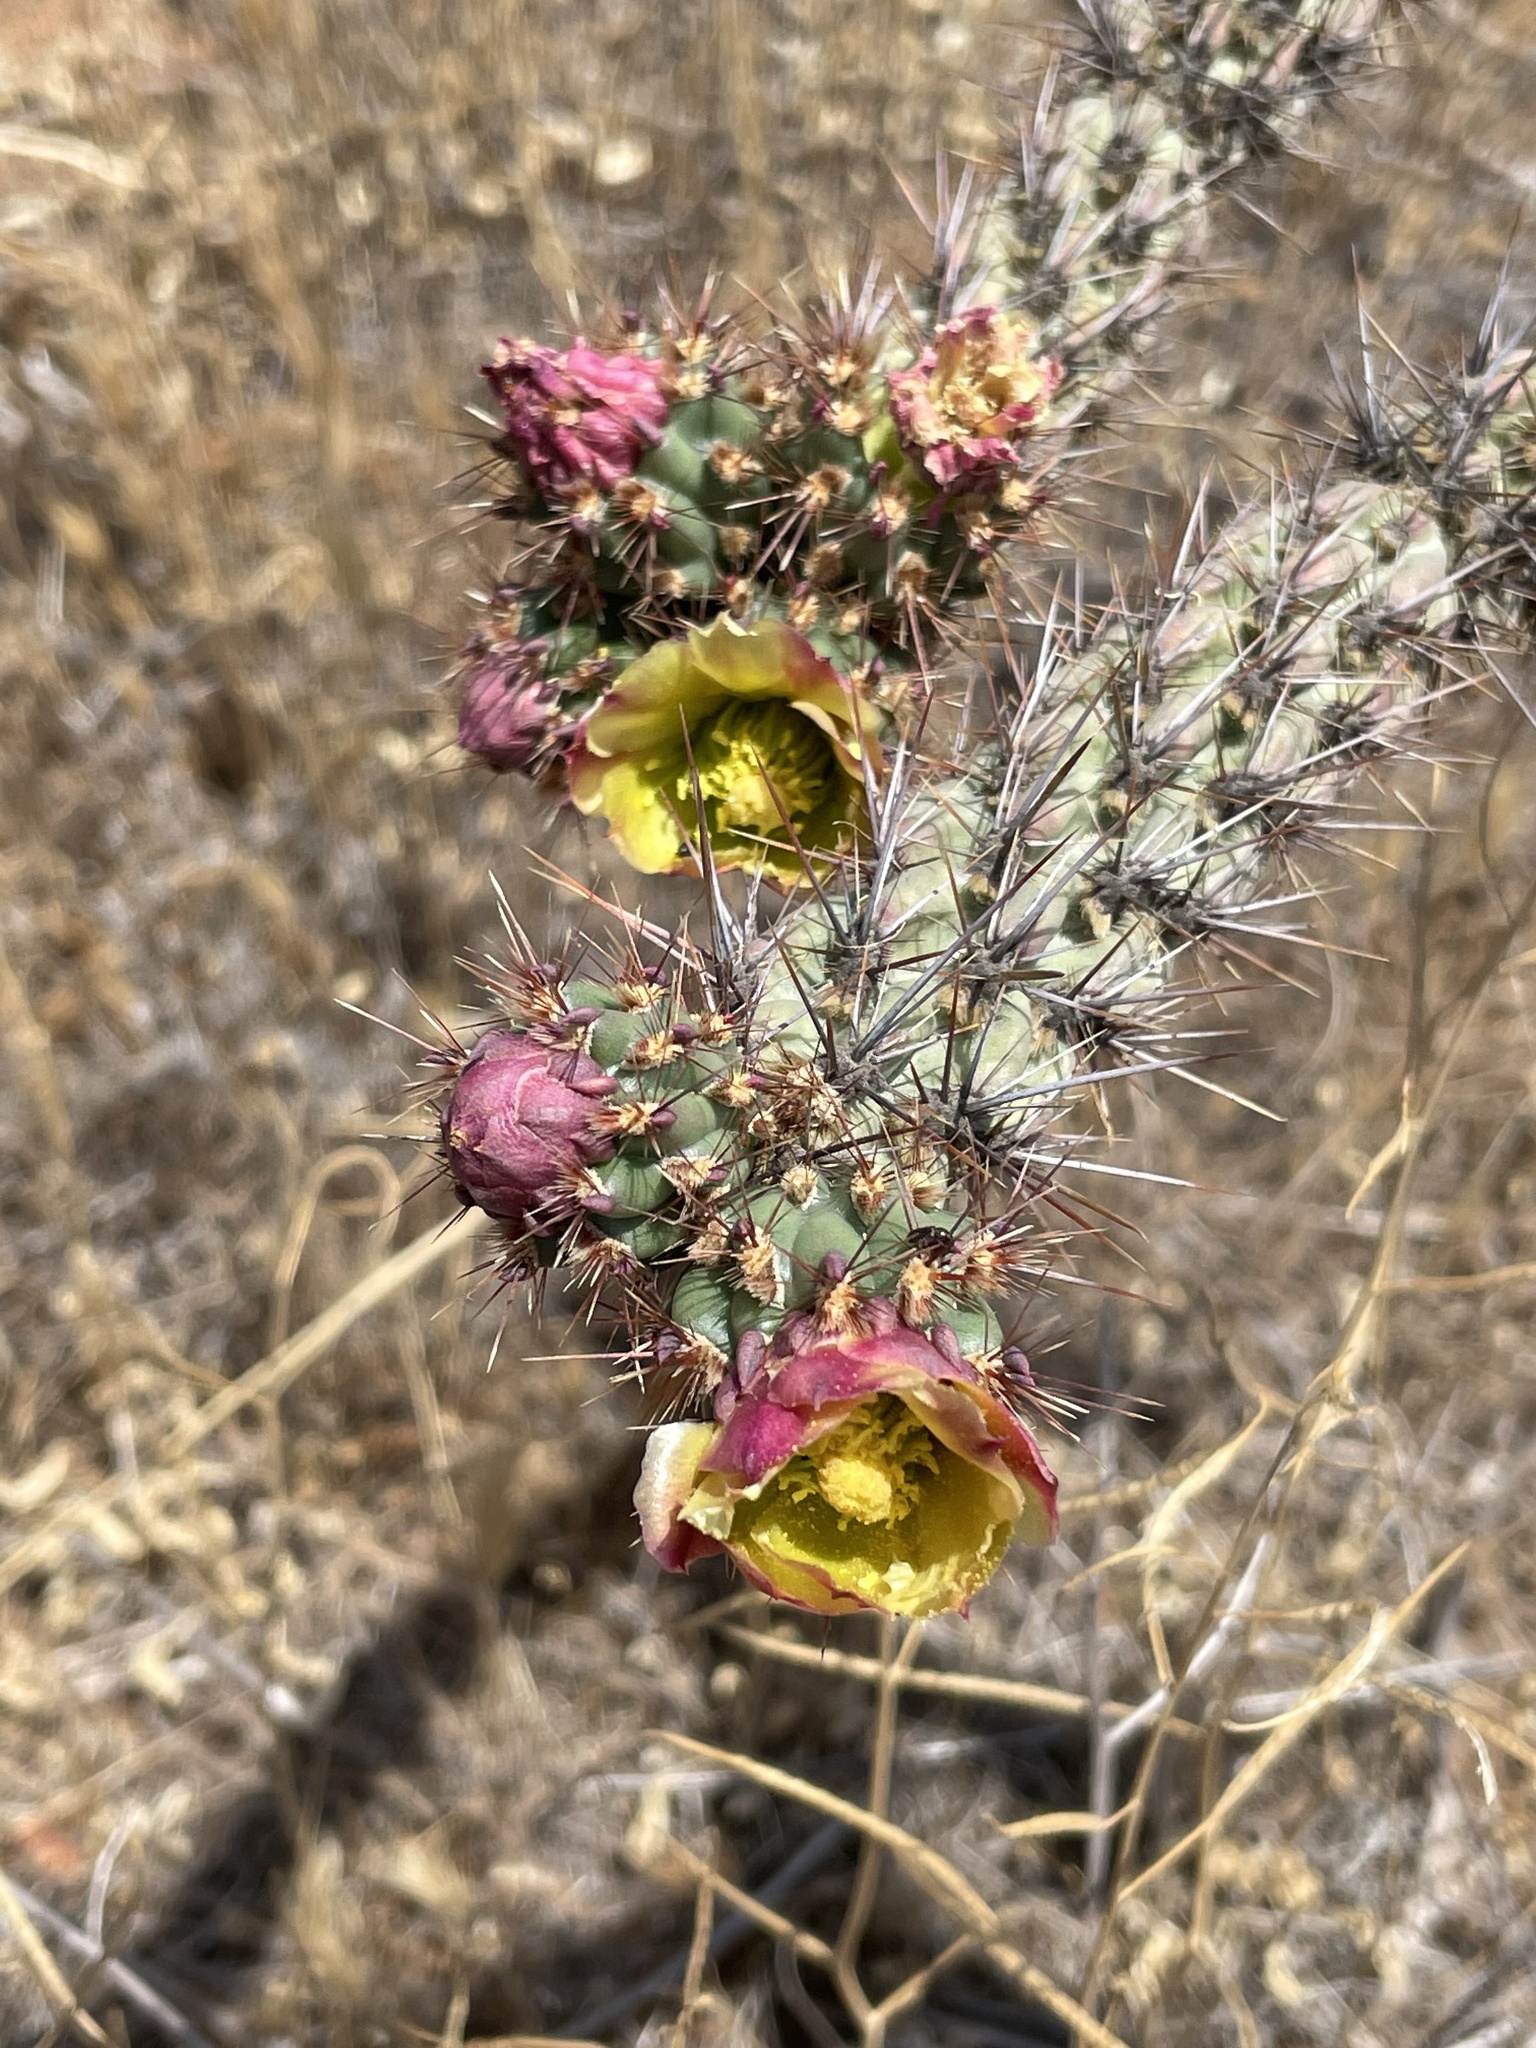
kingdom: Plantae
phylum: Tracheophyta
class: Magnoliopsida
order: Caryophyllales
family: Cactaceae
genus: Cylindropuntia
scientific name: Cylindropuntia californica
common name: Snake cholla
